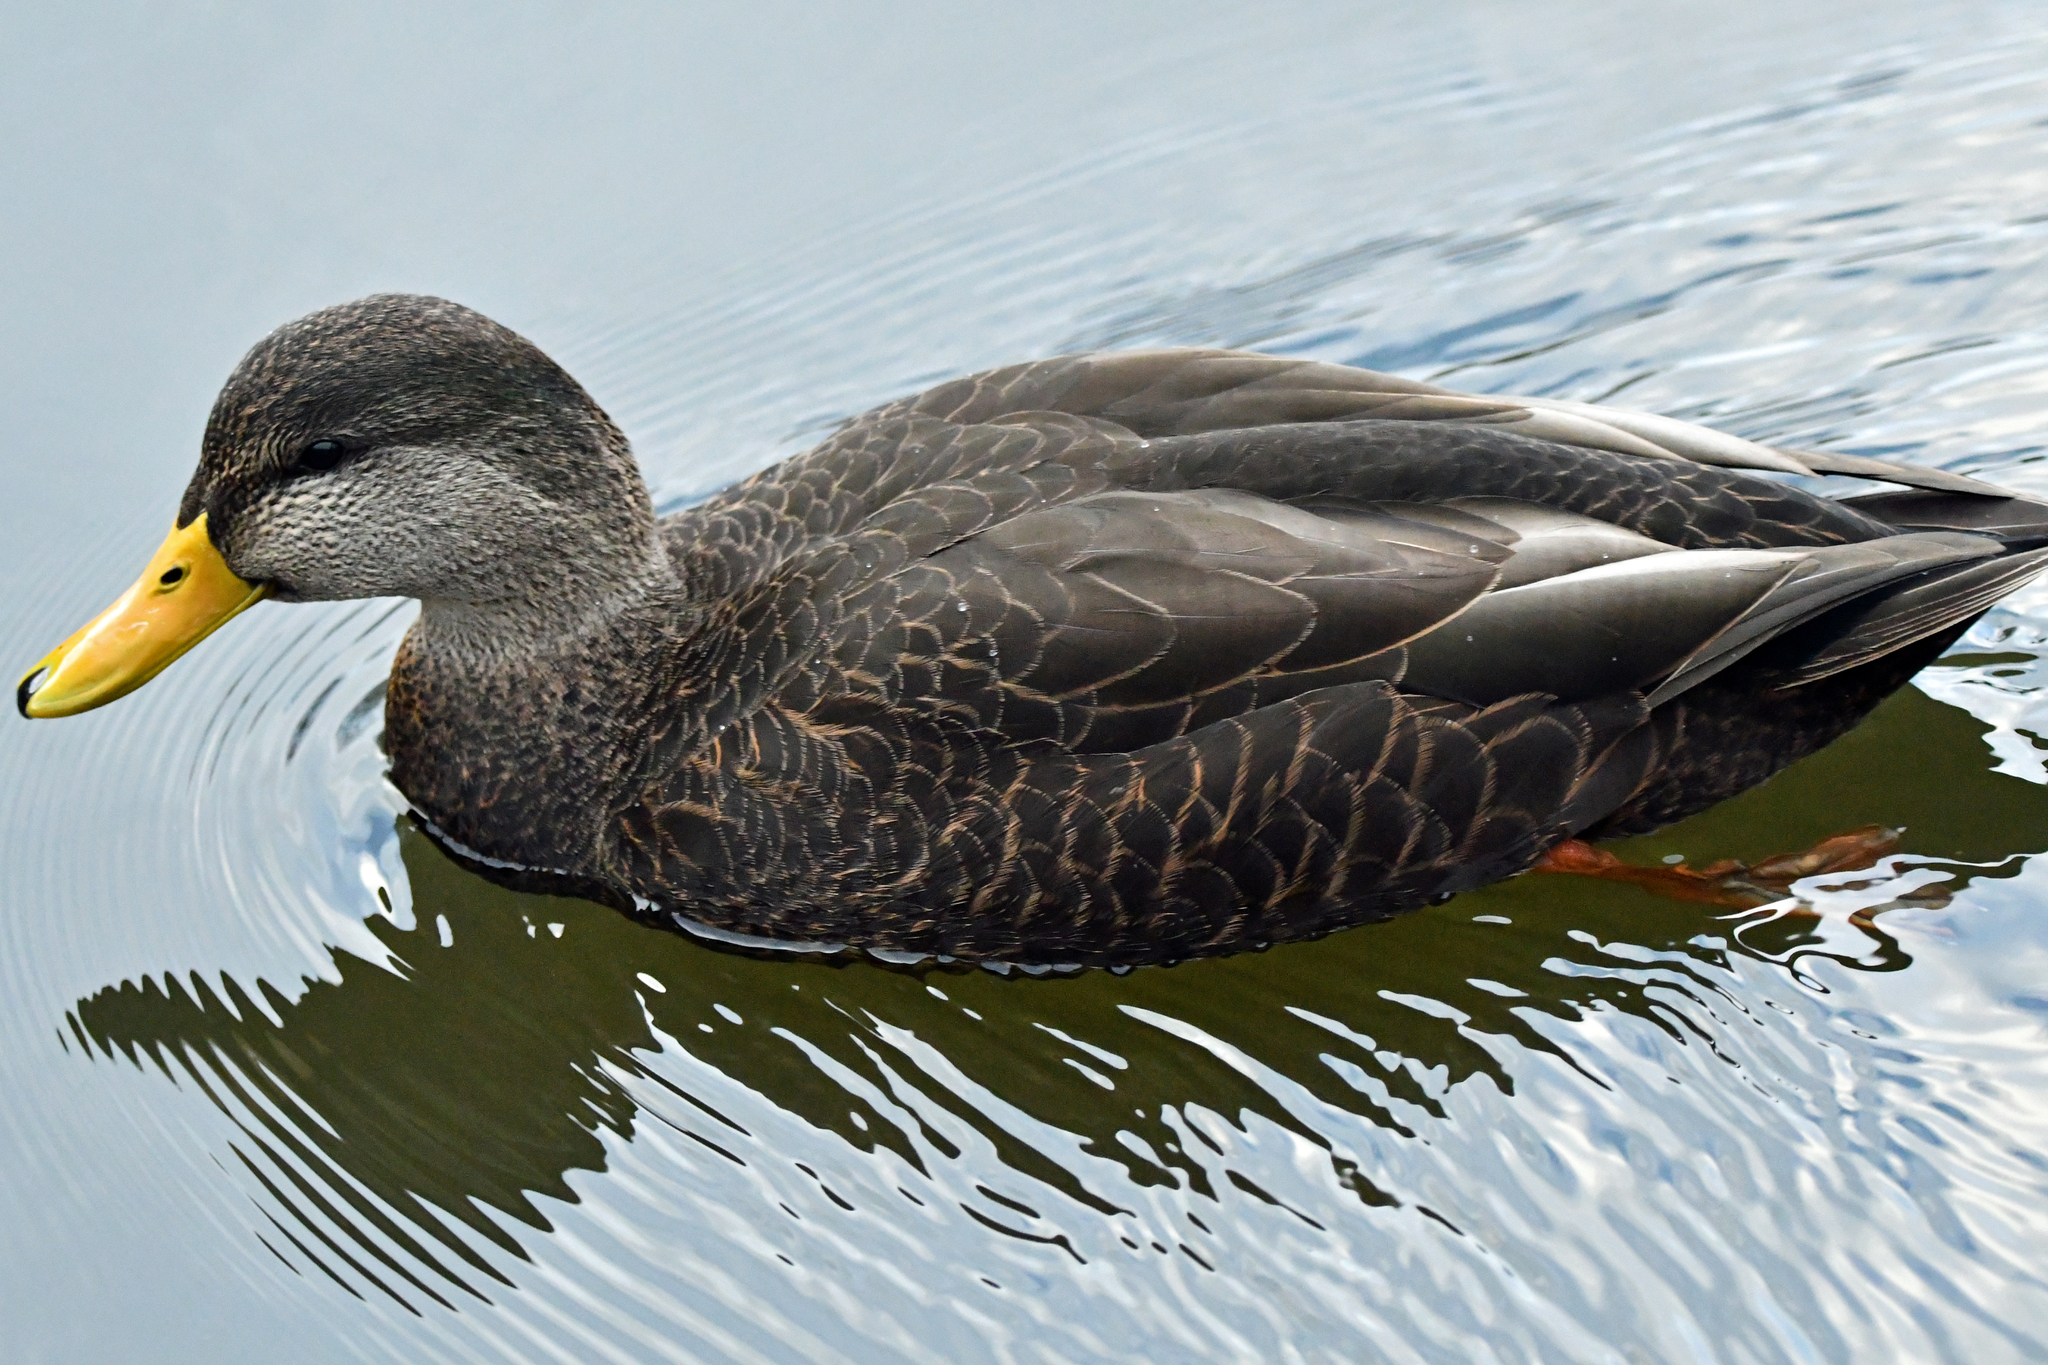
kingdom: Animalia
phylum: Chordata
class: Aves
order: Anseriformes
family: Anatidae
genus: Anas
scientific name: Anas rubripes
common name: American black duck
